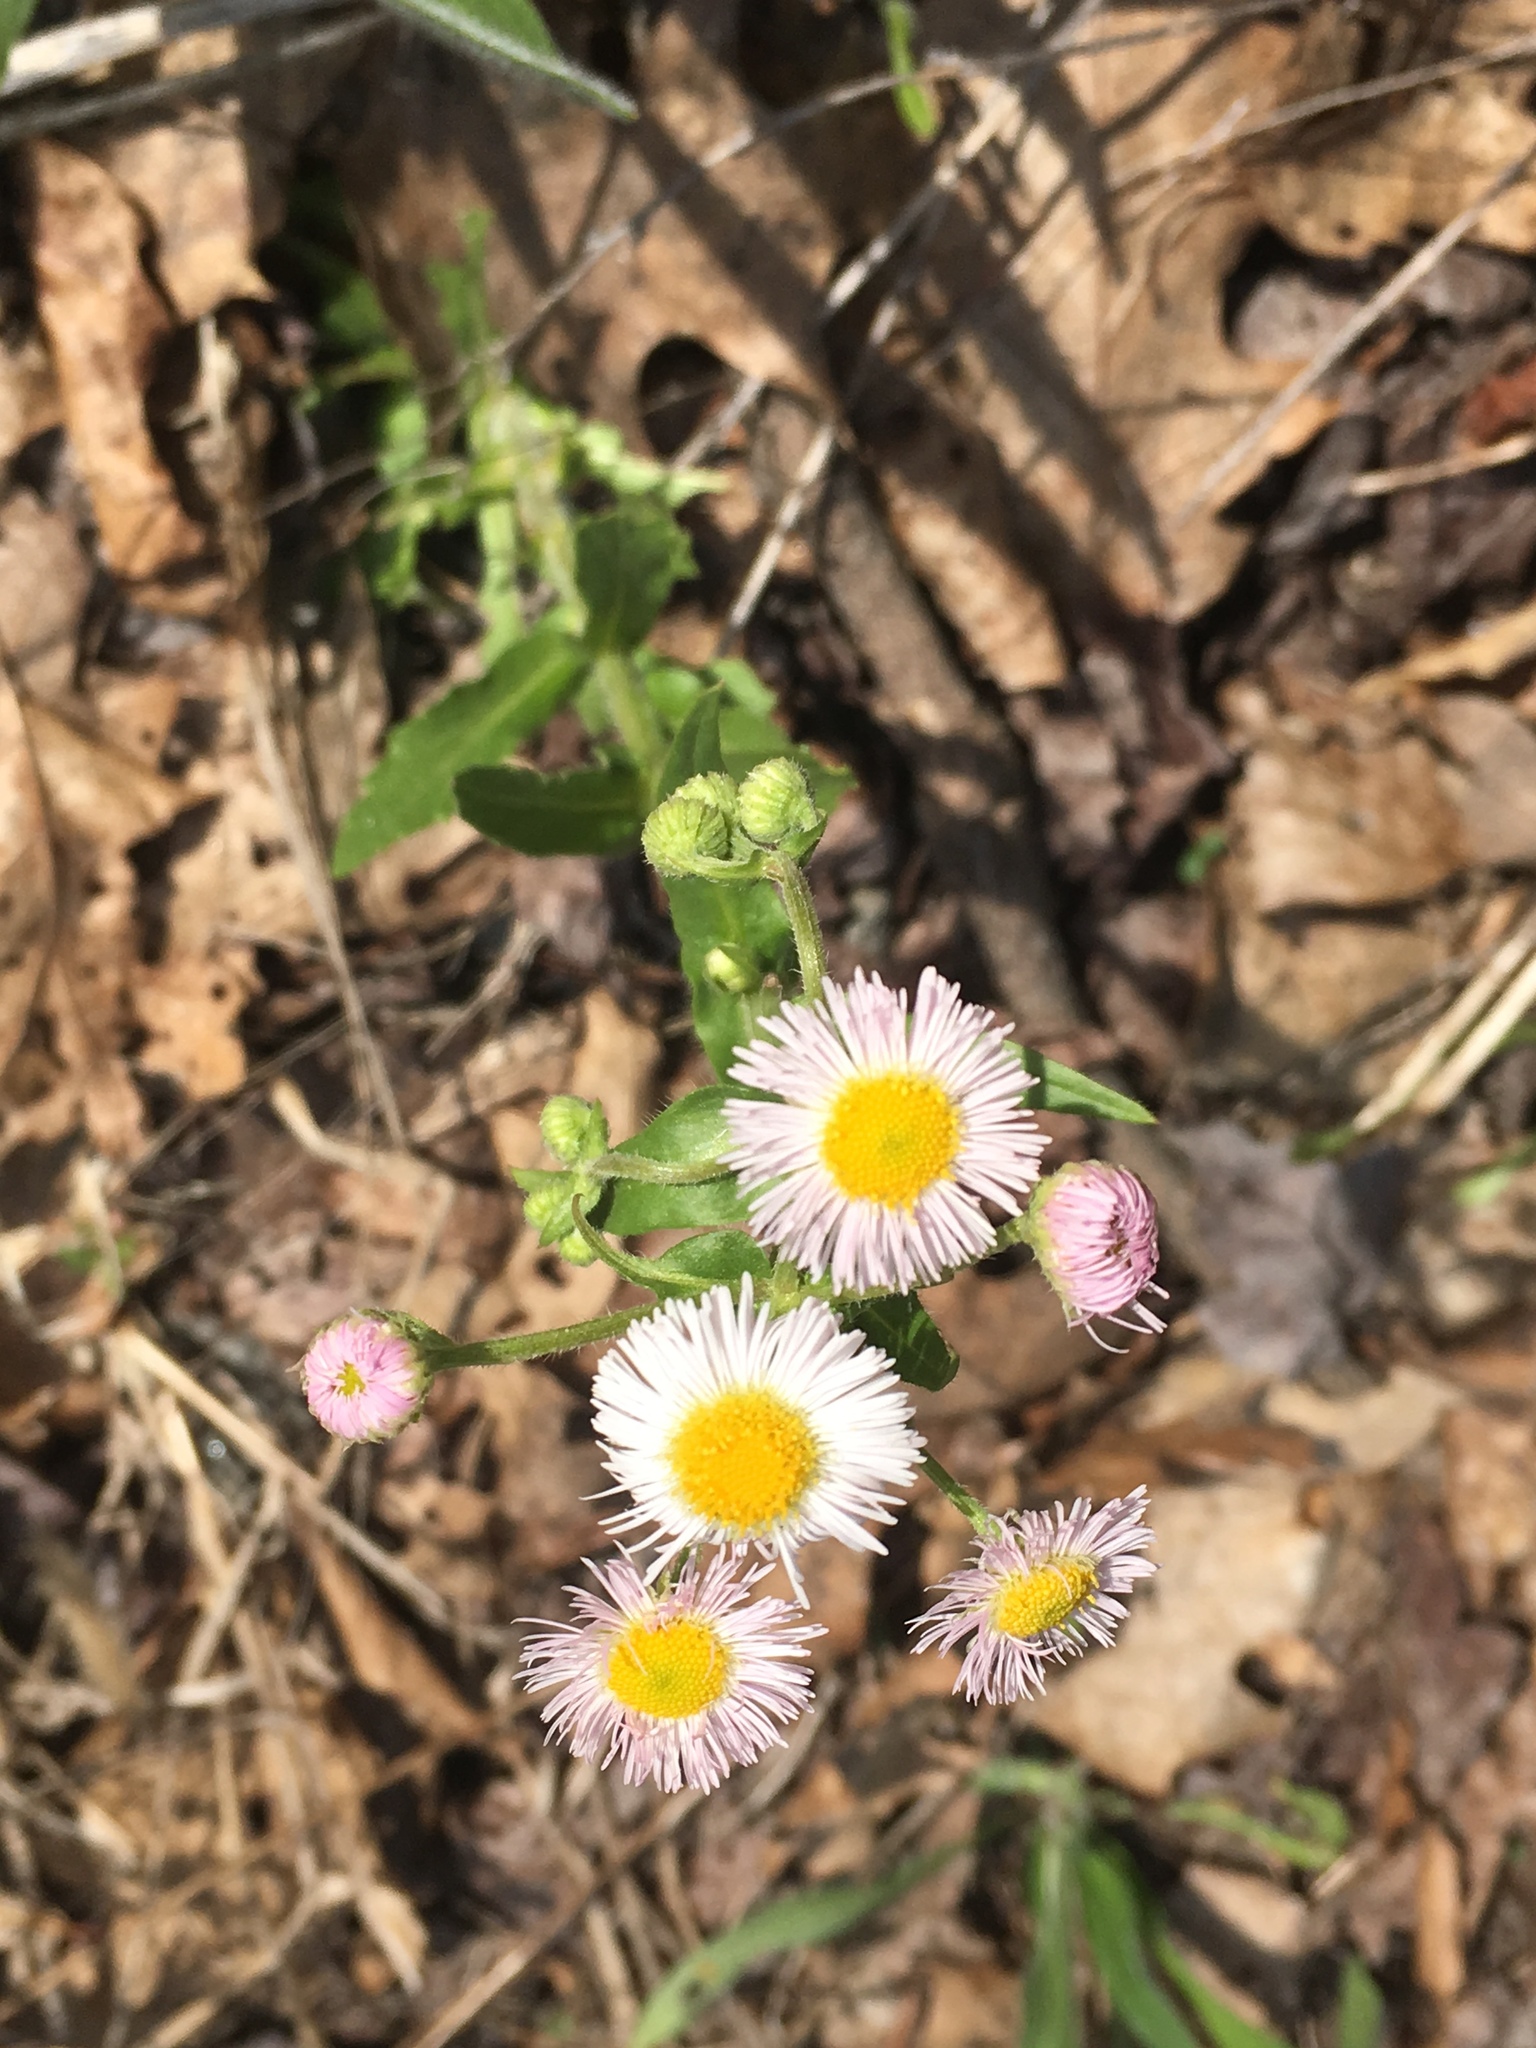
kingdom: Plantae
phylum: Tracheophyta
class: Magnoliopsida
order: Asterales
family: Asteraceae
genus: Erigeron
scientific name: Erigeron philadelphicus
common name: Robin's-plantain
